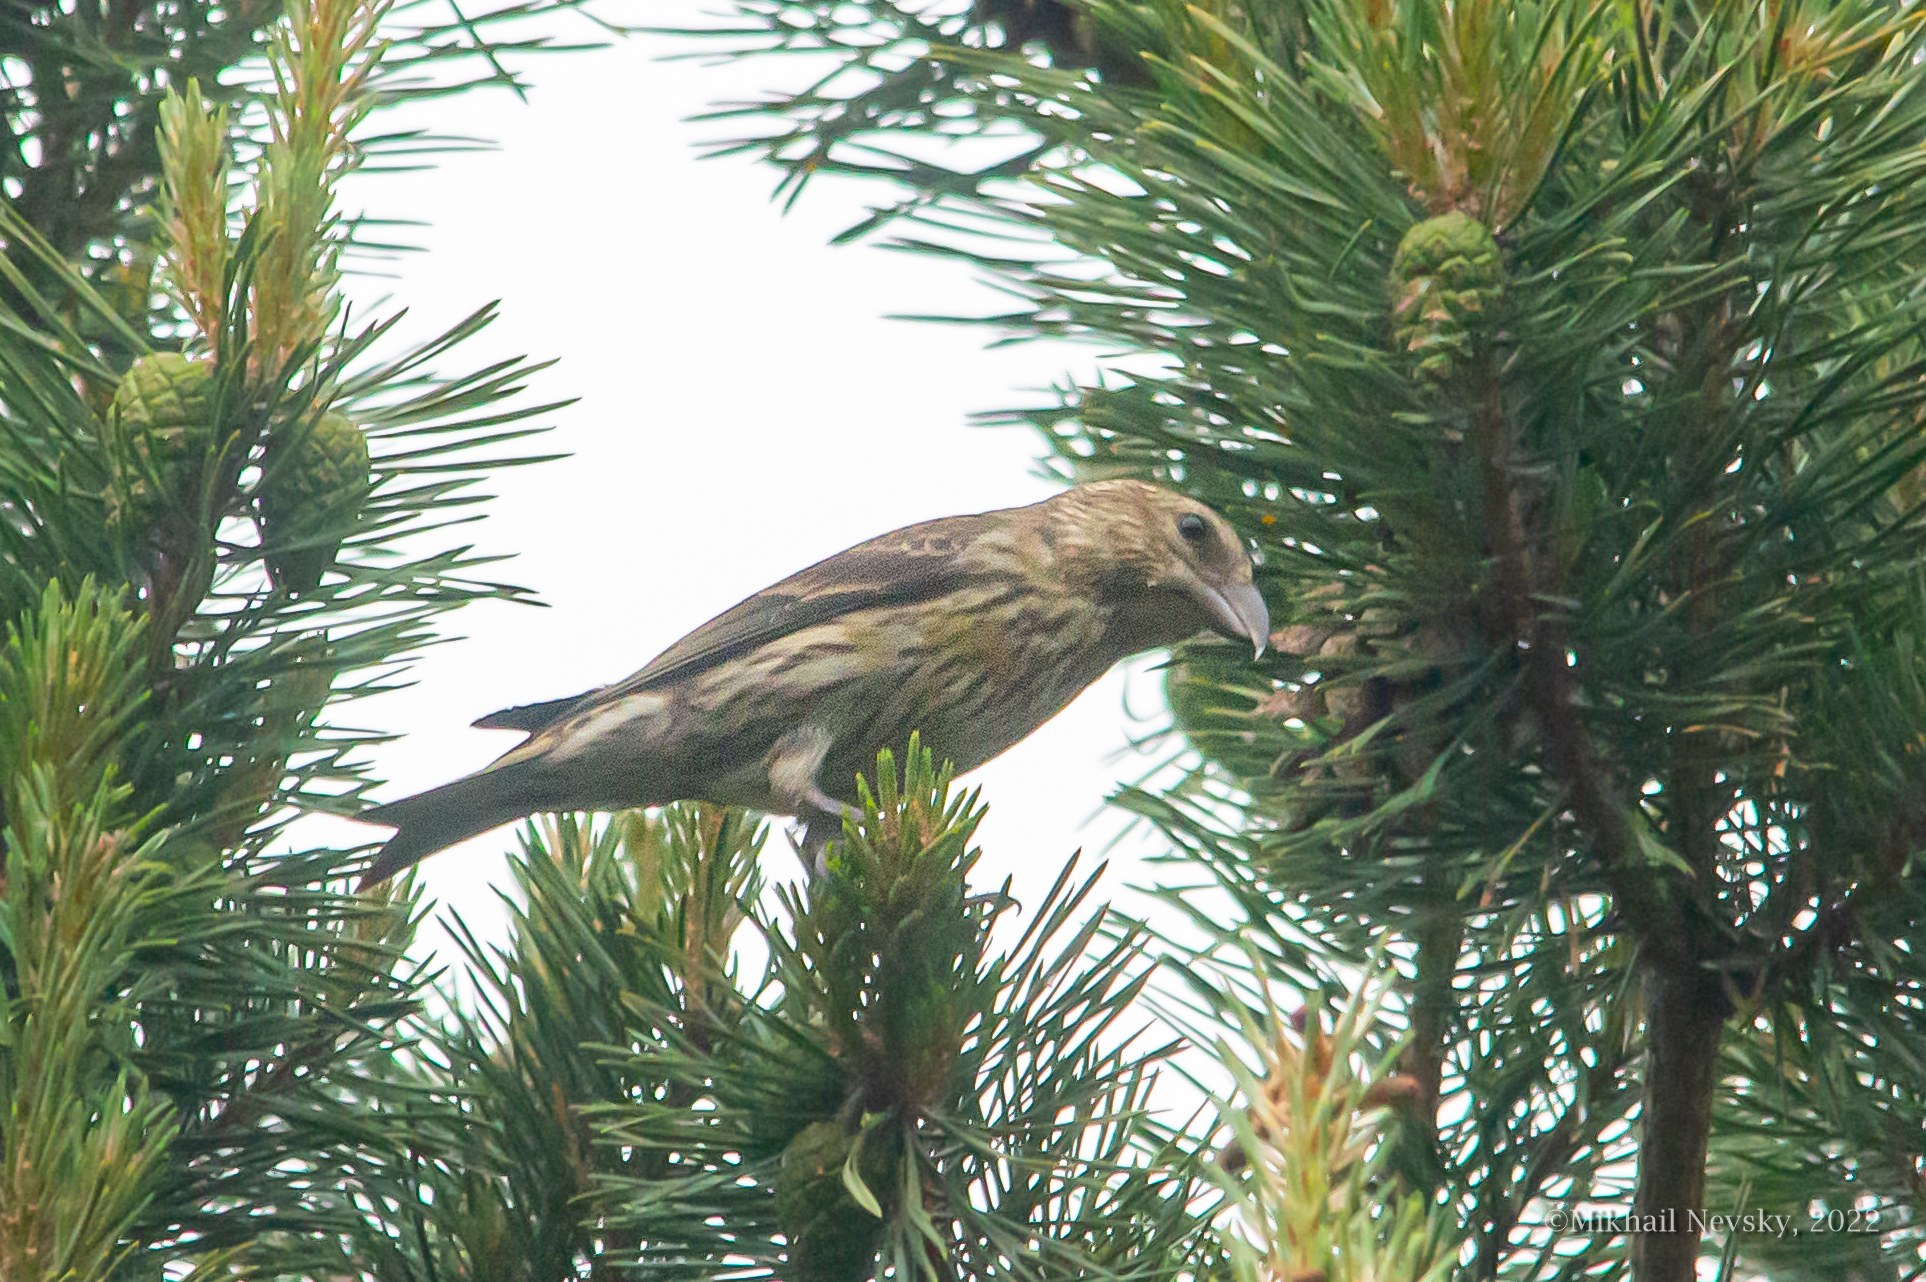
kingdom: Animalia
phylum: Chordata
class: Aves
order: Passeriformes
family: Fringillidae
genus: Loxia
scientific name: Loxia curvirostra
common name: Red crossbill
